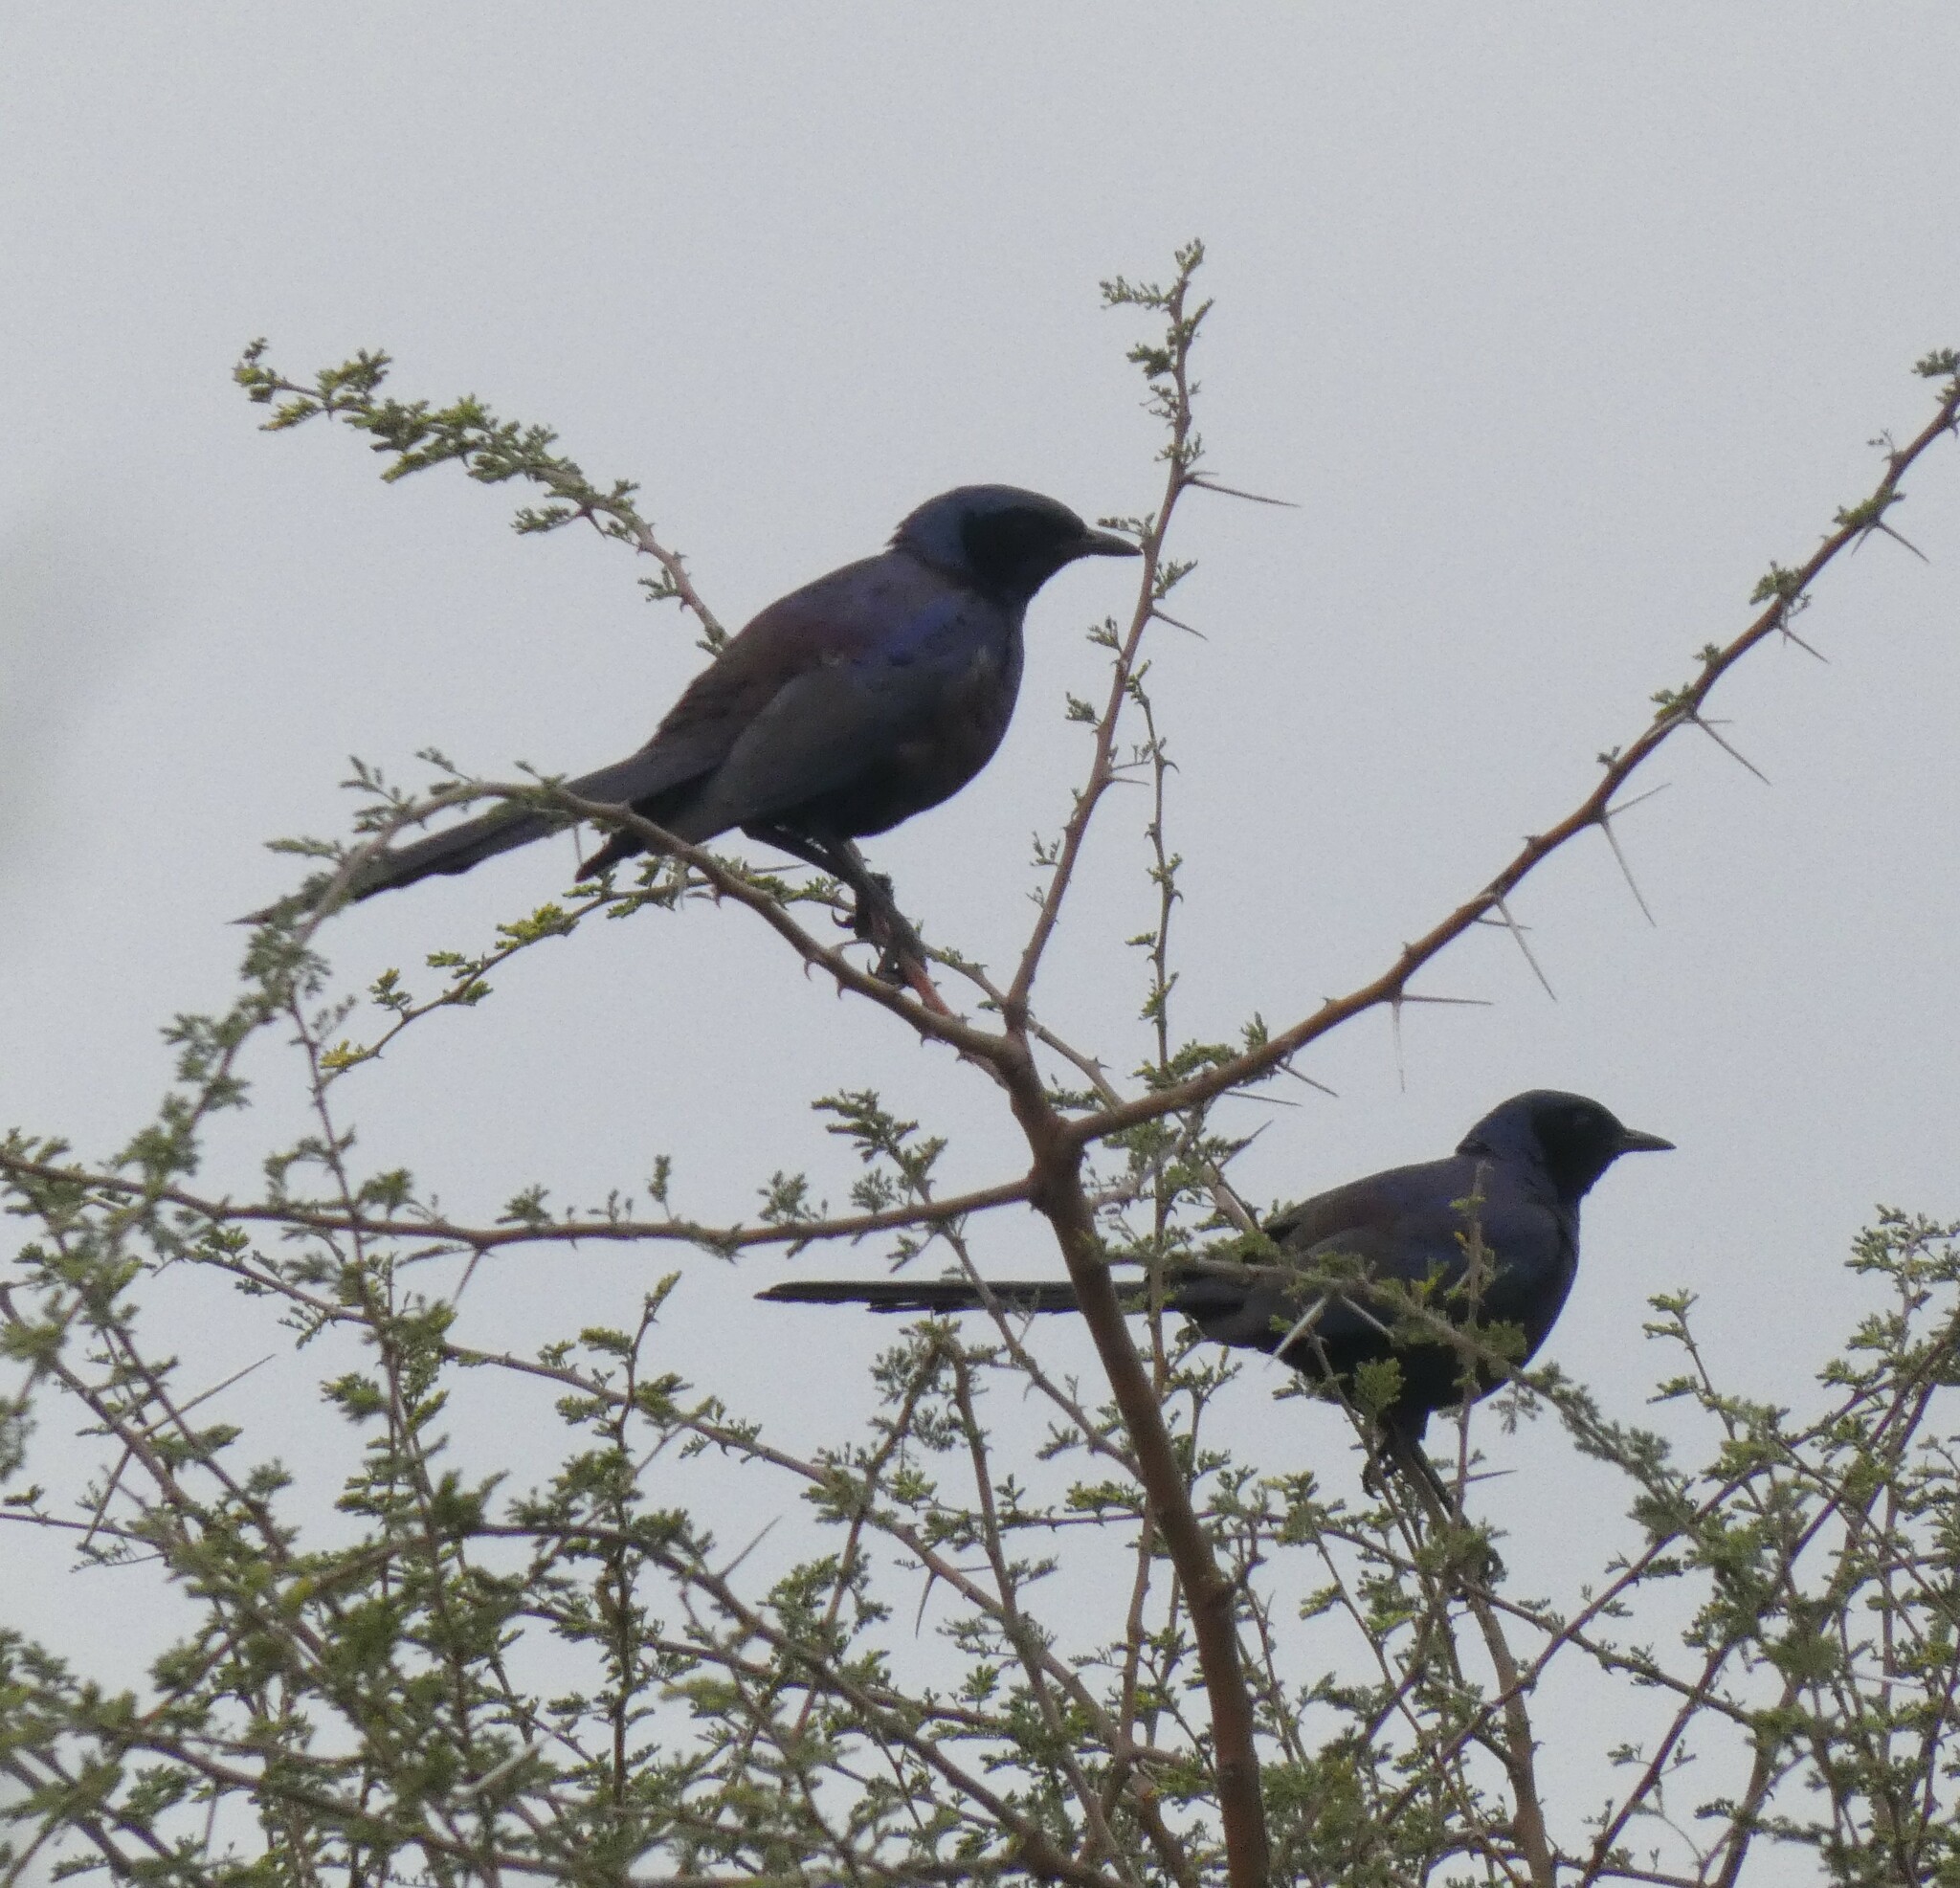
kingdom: Animalia
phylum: Chordata
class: Aves
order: Passeriformes
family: Sturnidae
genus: Lamprotornis
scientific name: Lamprotornis mevesii
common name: Meves's starling
